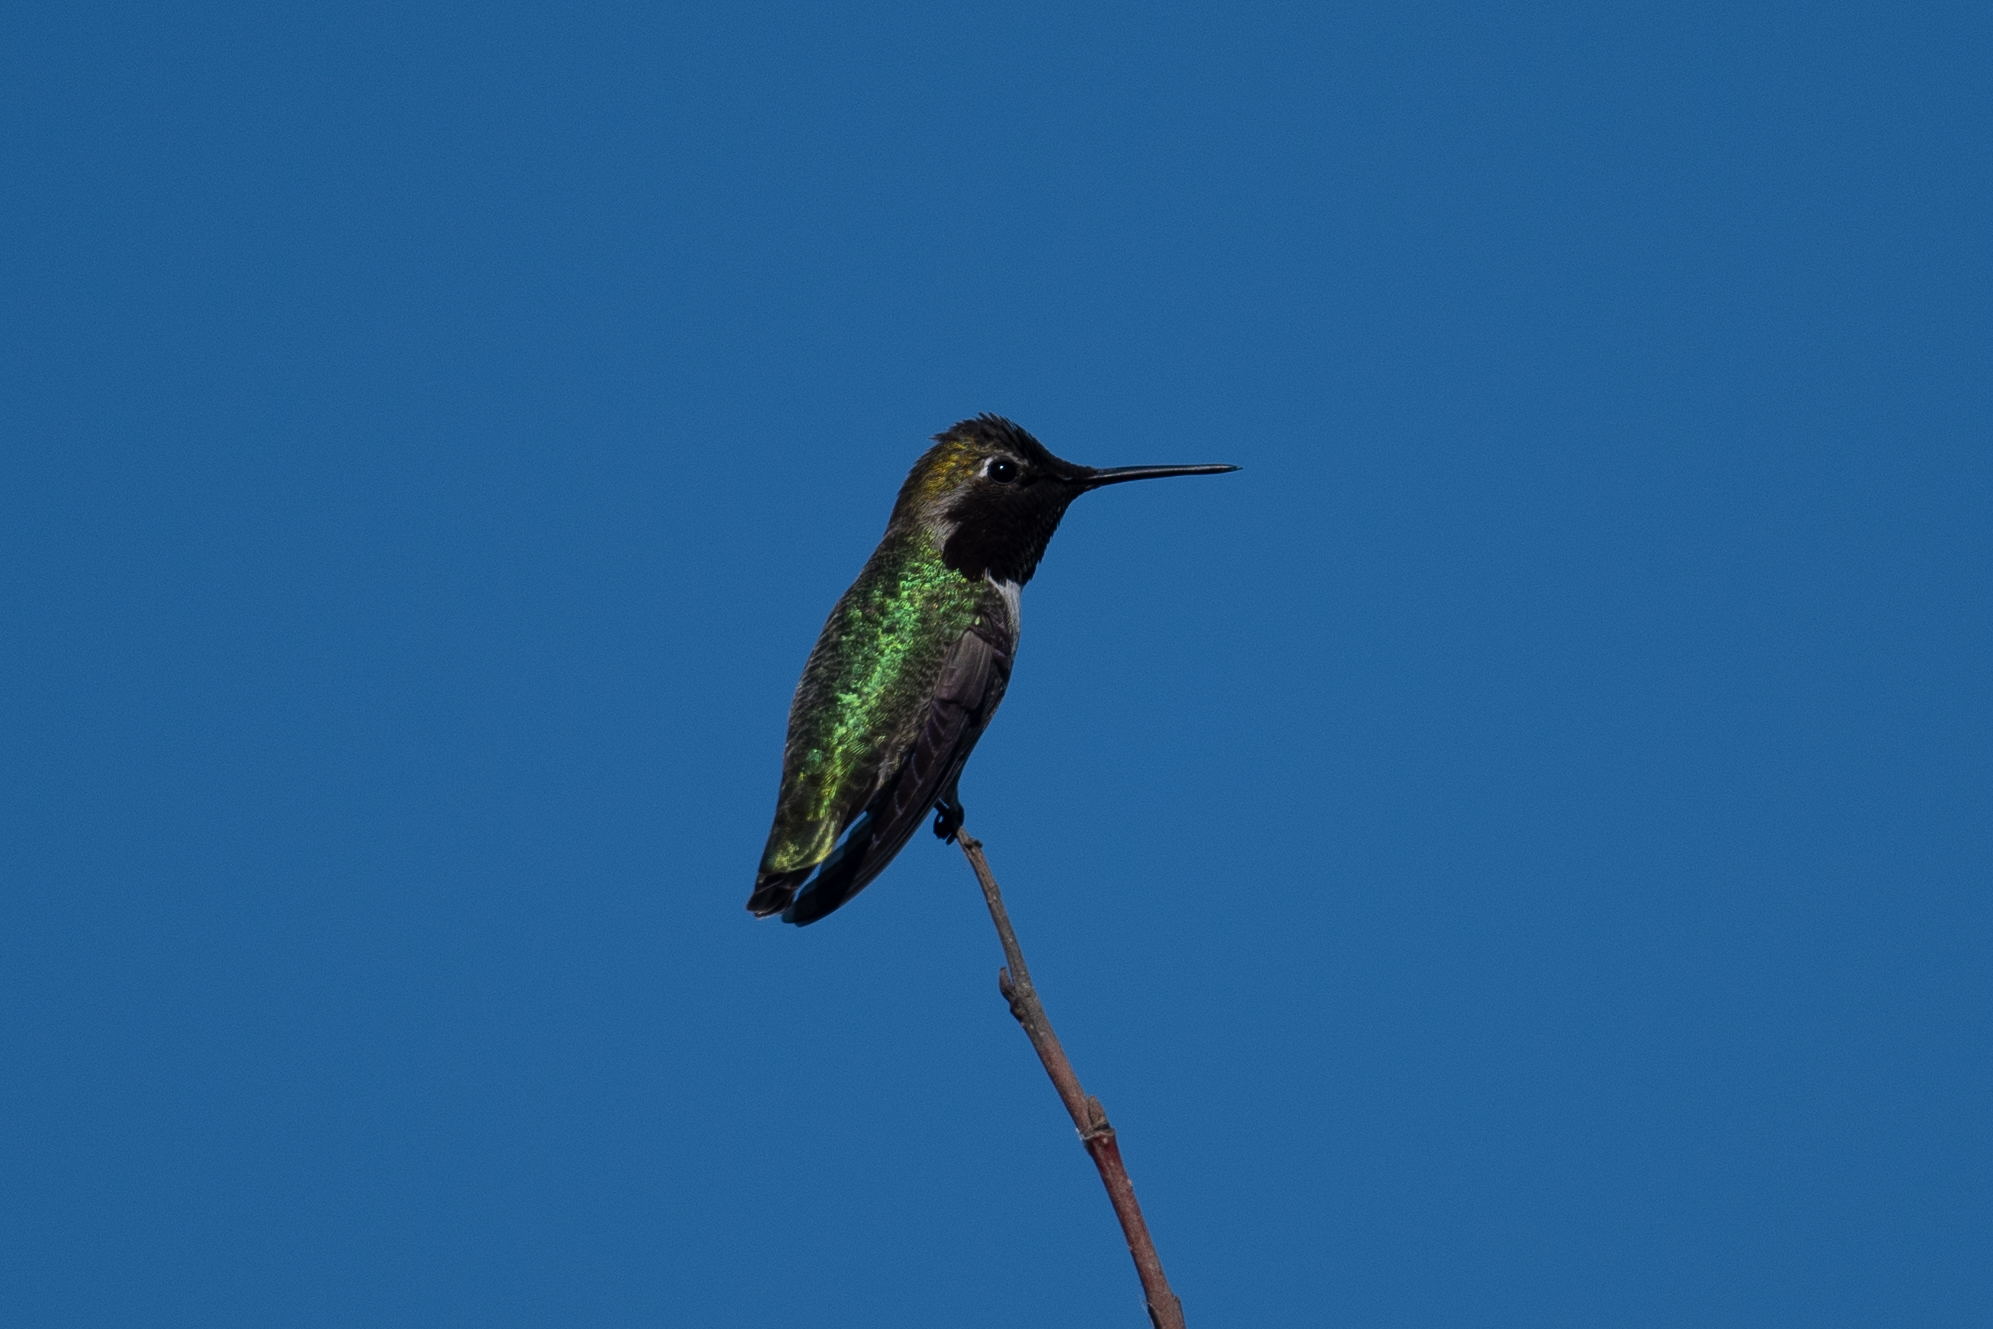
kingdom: Animalia
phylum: Chordata
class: Aves
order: Apodiformes
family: Trochilidae
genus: Calypte
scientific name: Calypte anna
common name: Anna's hummingbird
